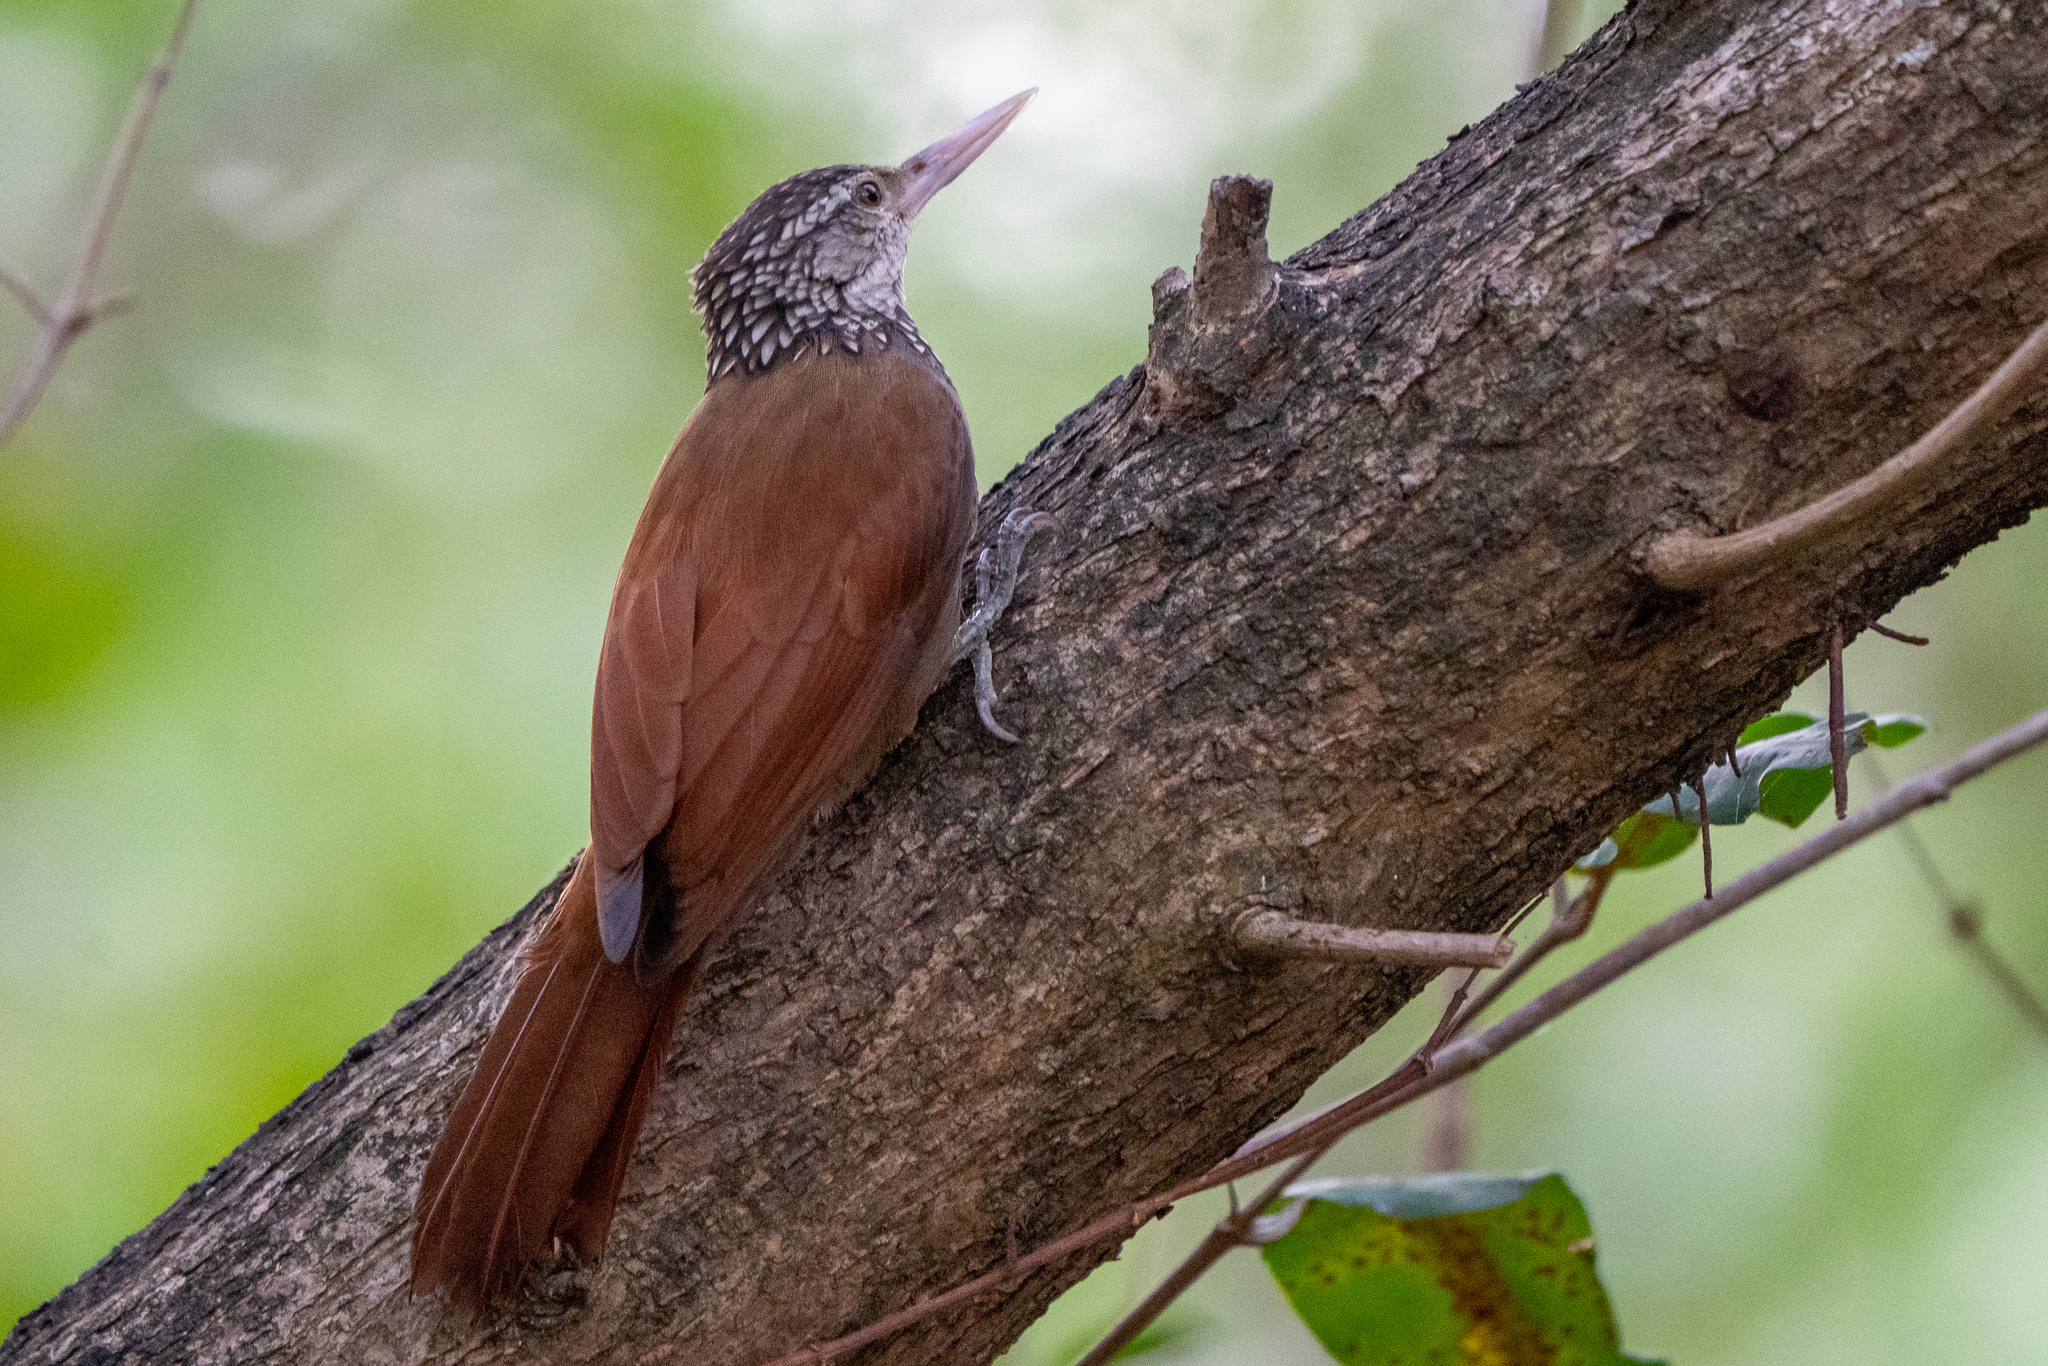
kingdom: Animalia
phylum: Chordata
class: Aves
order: Passeriformes
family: Furnariidae
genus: Xiphorhynchus
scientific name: Xiphorhynchus picus
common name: Straight-billed woodcreeper
